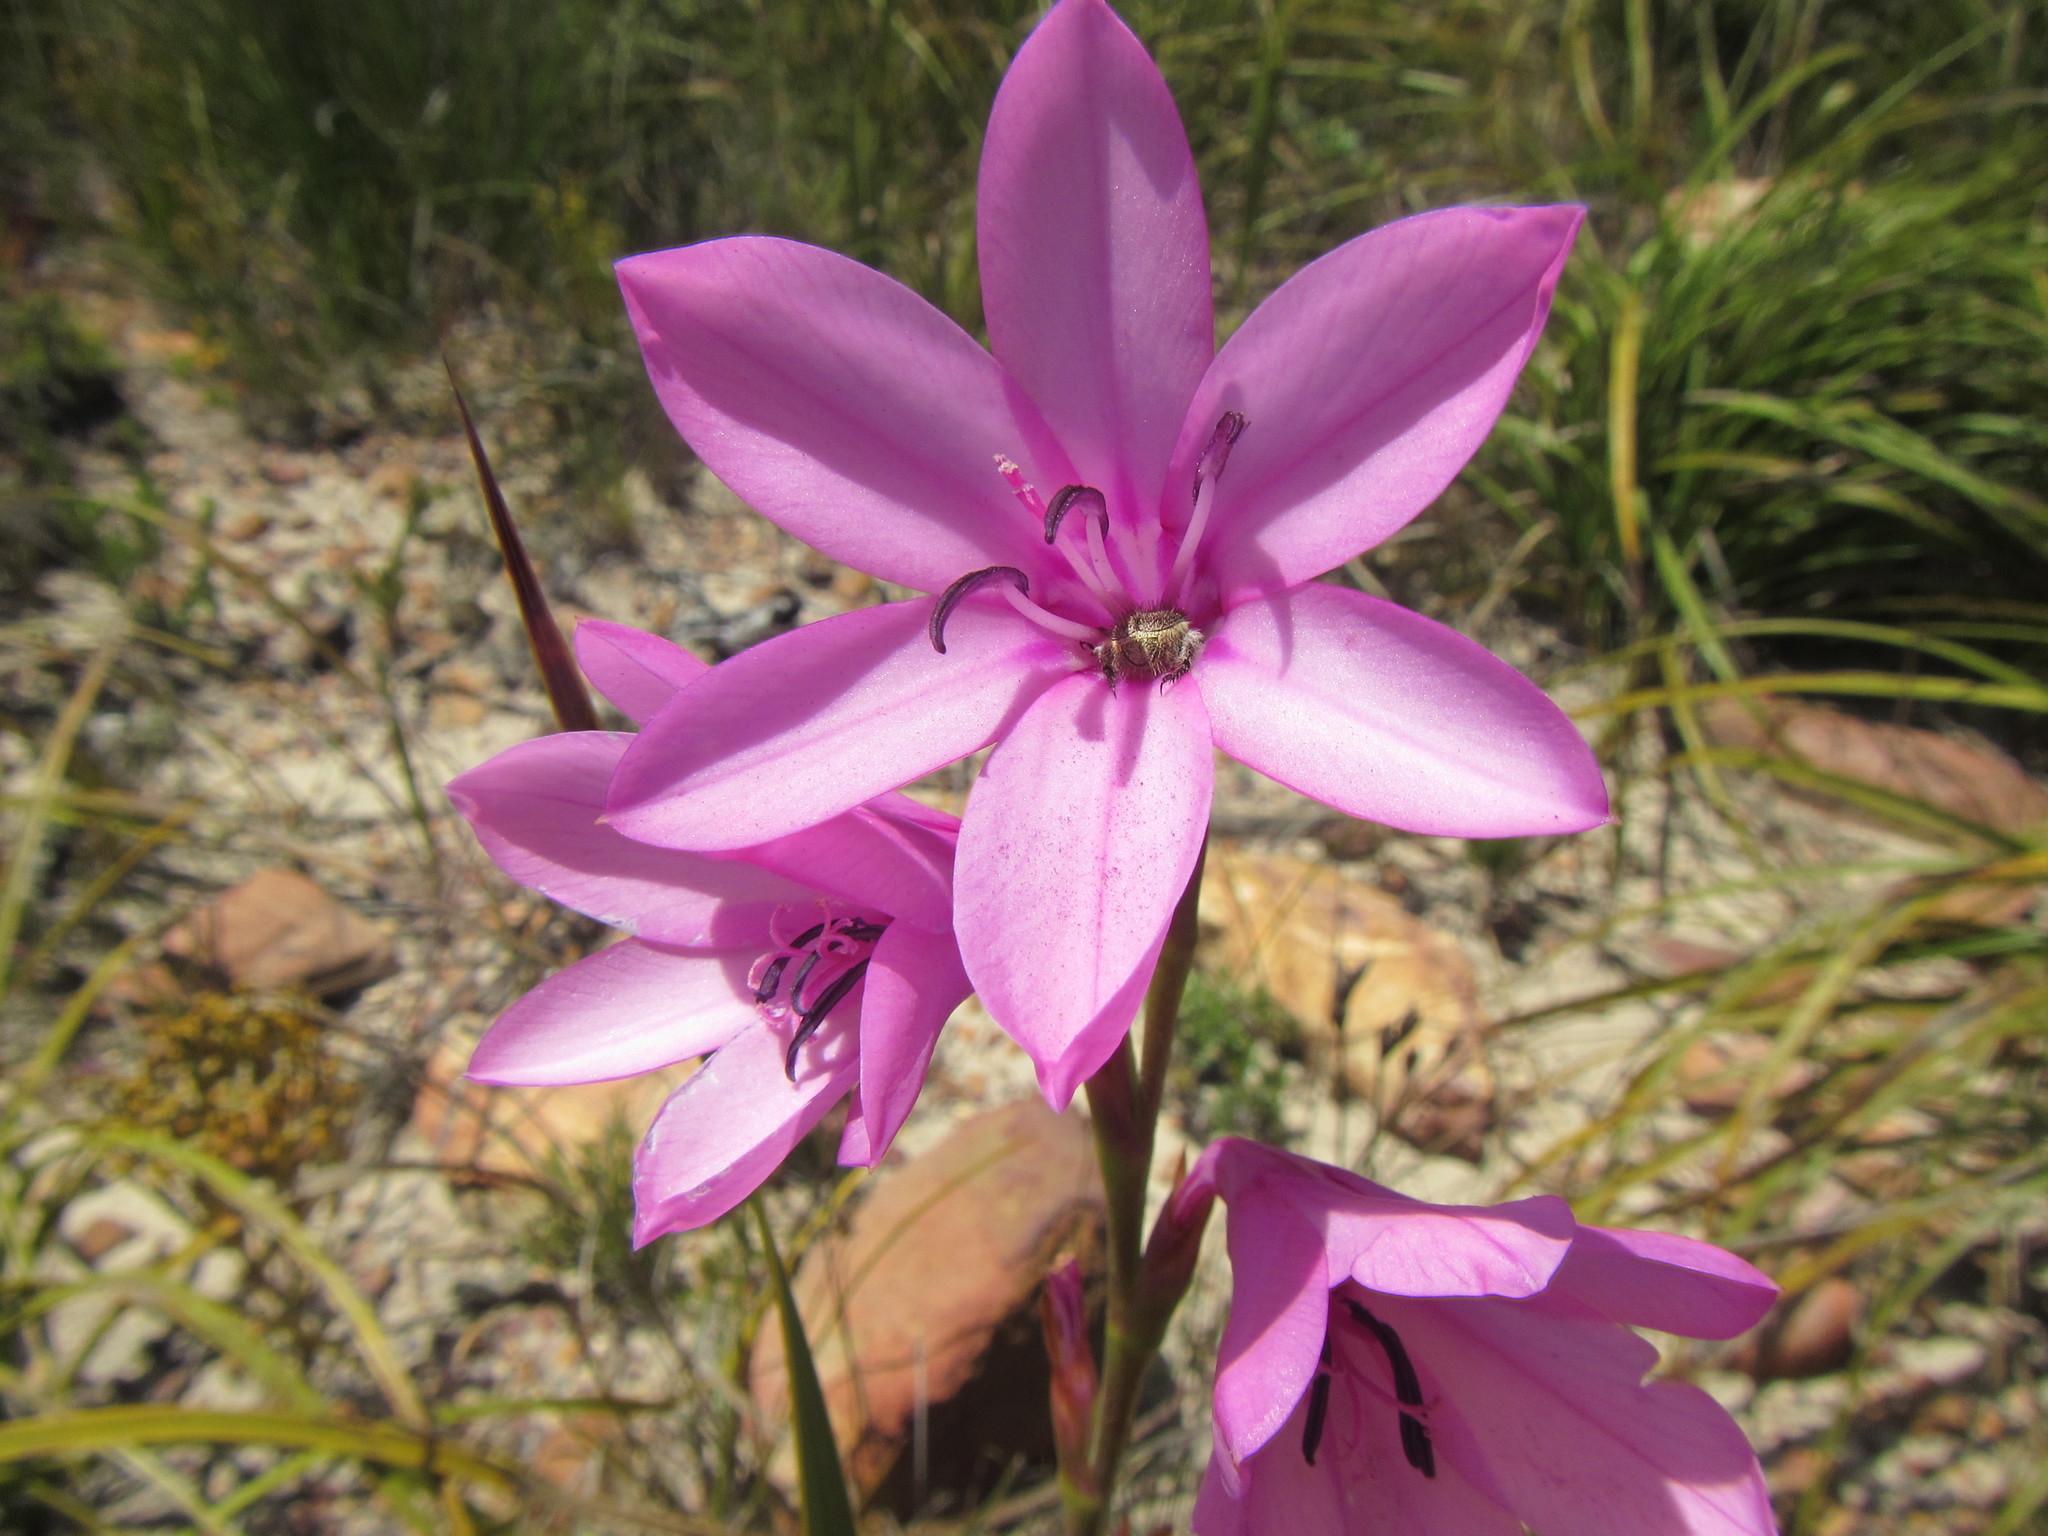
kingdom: Plantae
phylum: Tracheophyta
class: Liliopsida
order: Asparagales
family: Iridaceae
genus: Watsonia
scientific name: Watsonia borbonica
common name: Bugle-lily
